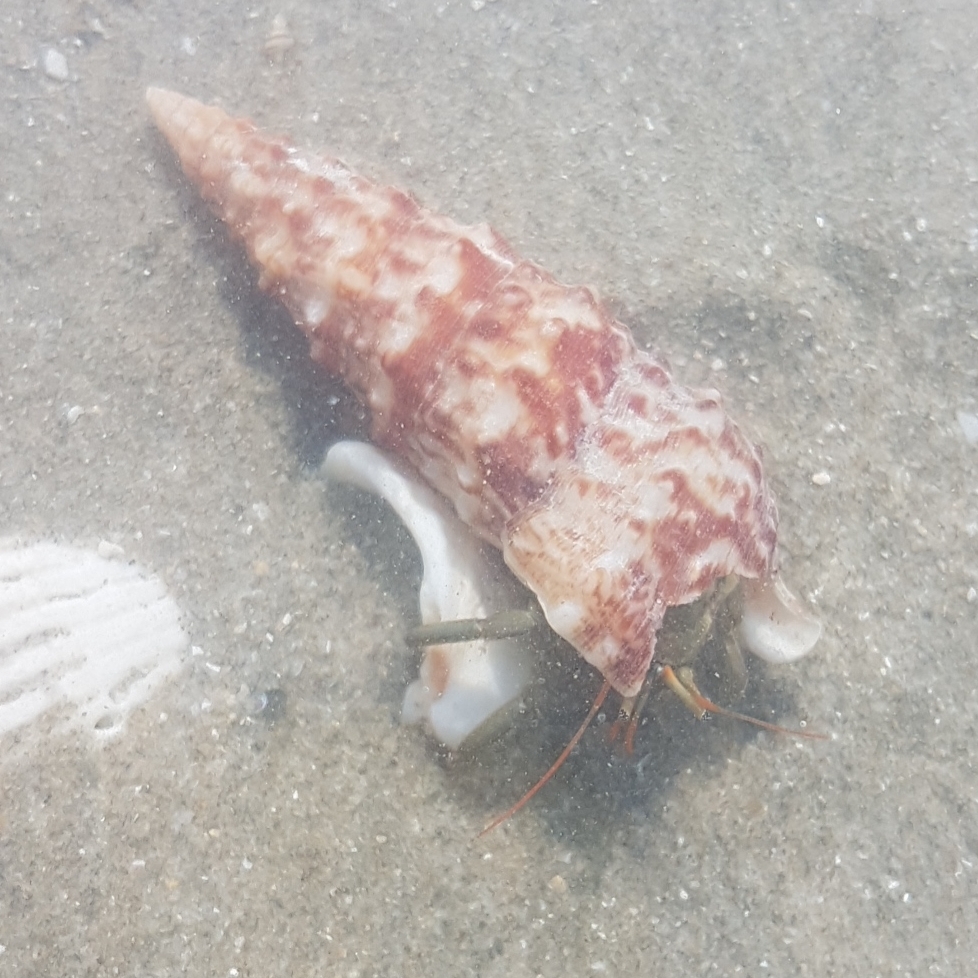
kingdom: Animalia
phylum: Arthropoda
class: Malacostraca
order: Decapoda
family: Diogenidae
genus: Clibanarius
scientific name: Clibanarius erythropus
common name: Hermit crab
